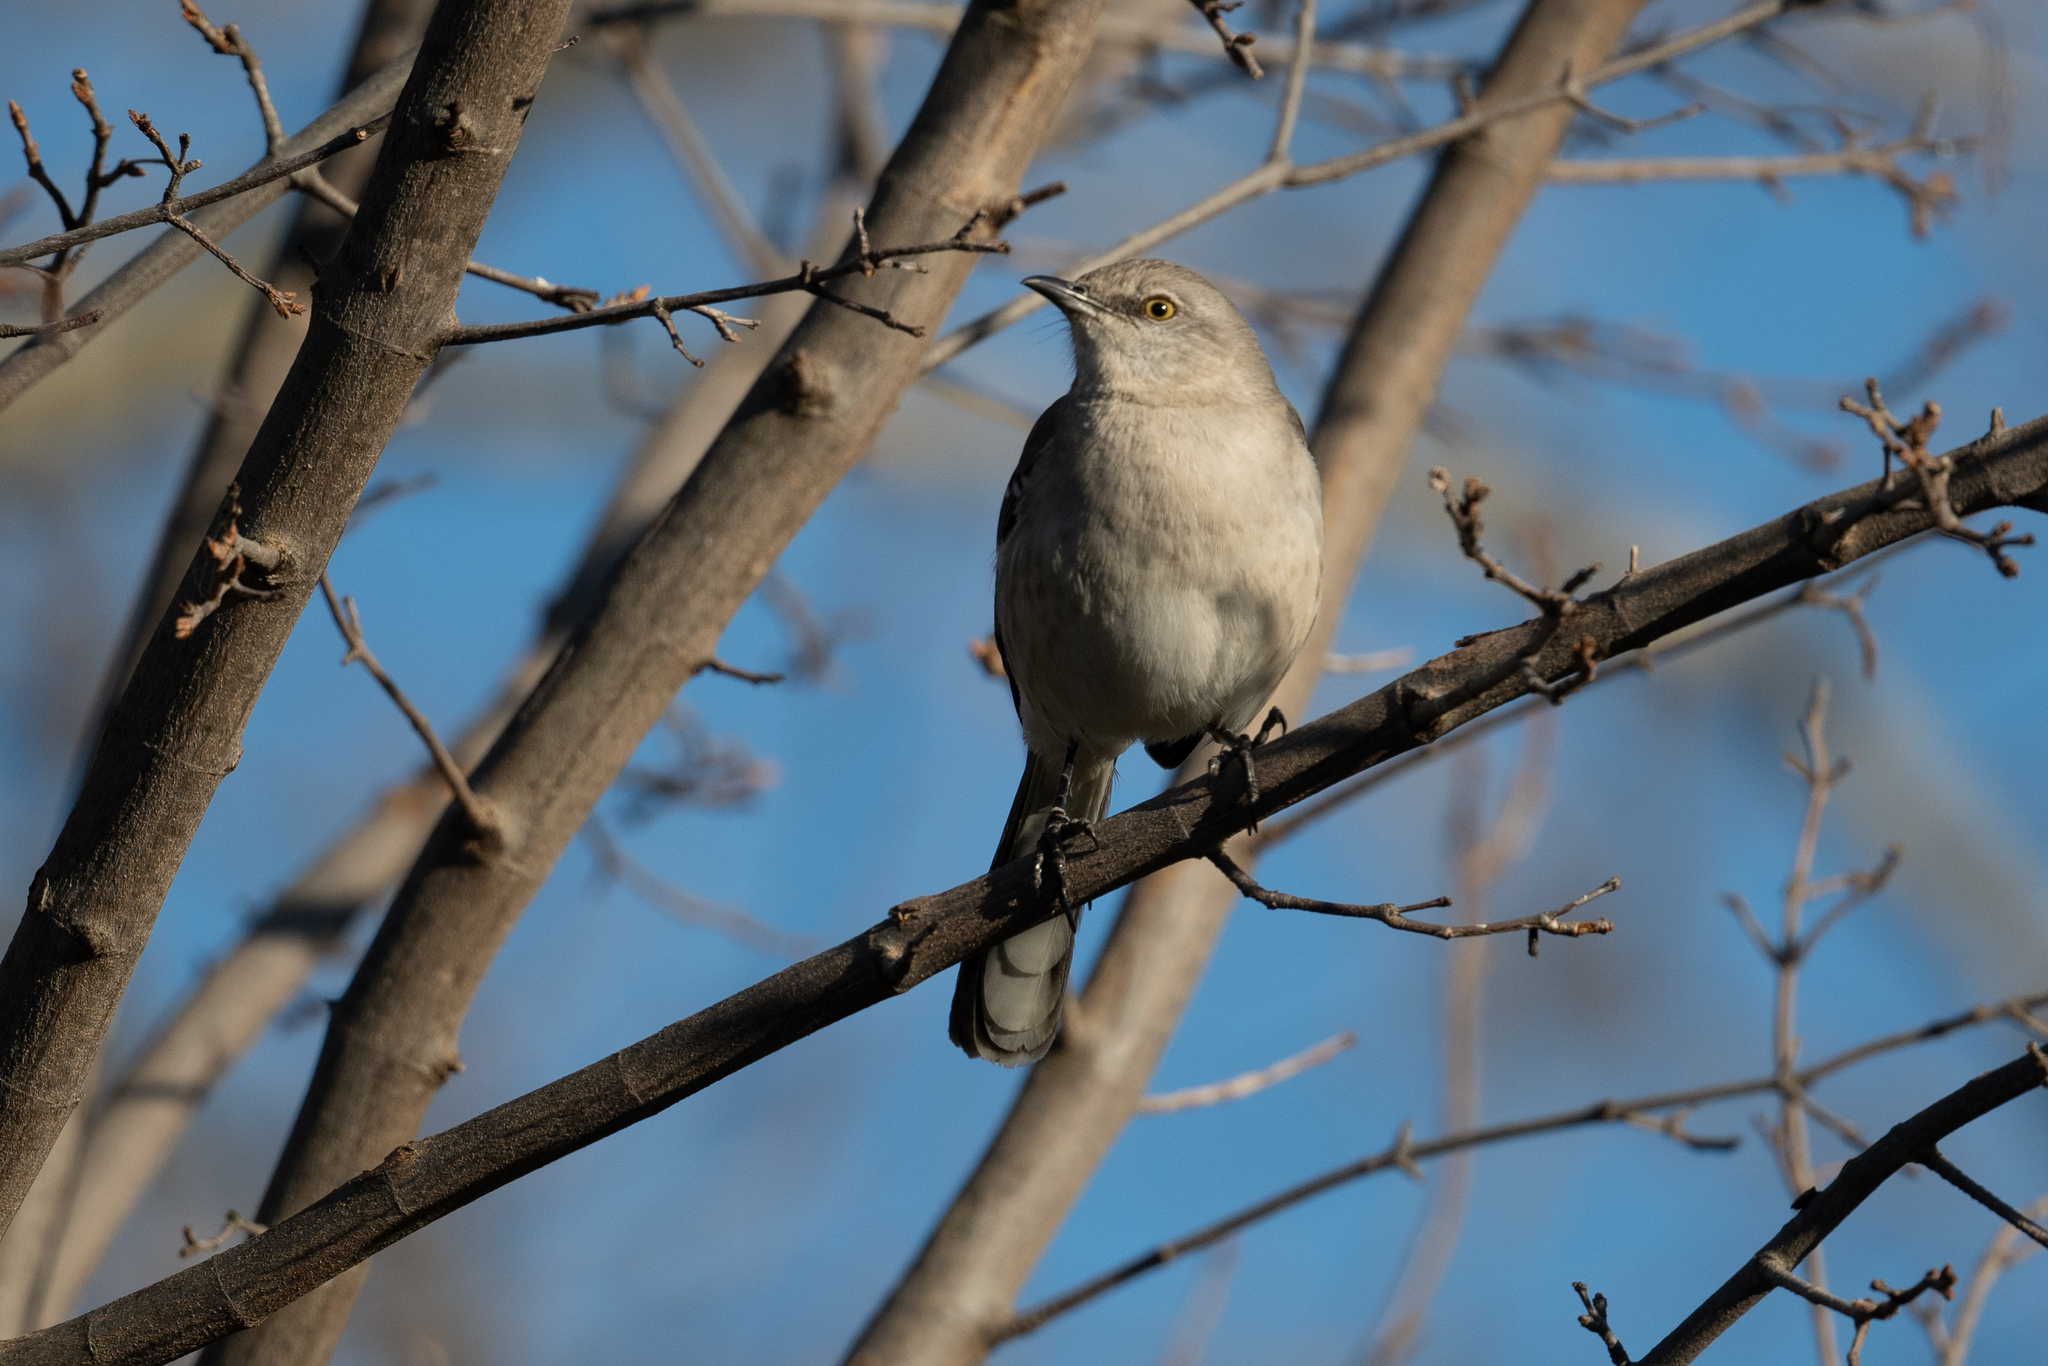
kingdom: Animalia
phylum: Chordata
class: Aves
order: Passeriformes
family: Mimidae
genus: Mimus
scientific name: Mimus polyglottos
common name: Northern mockingbird
